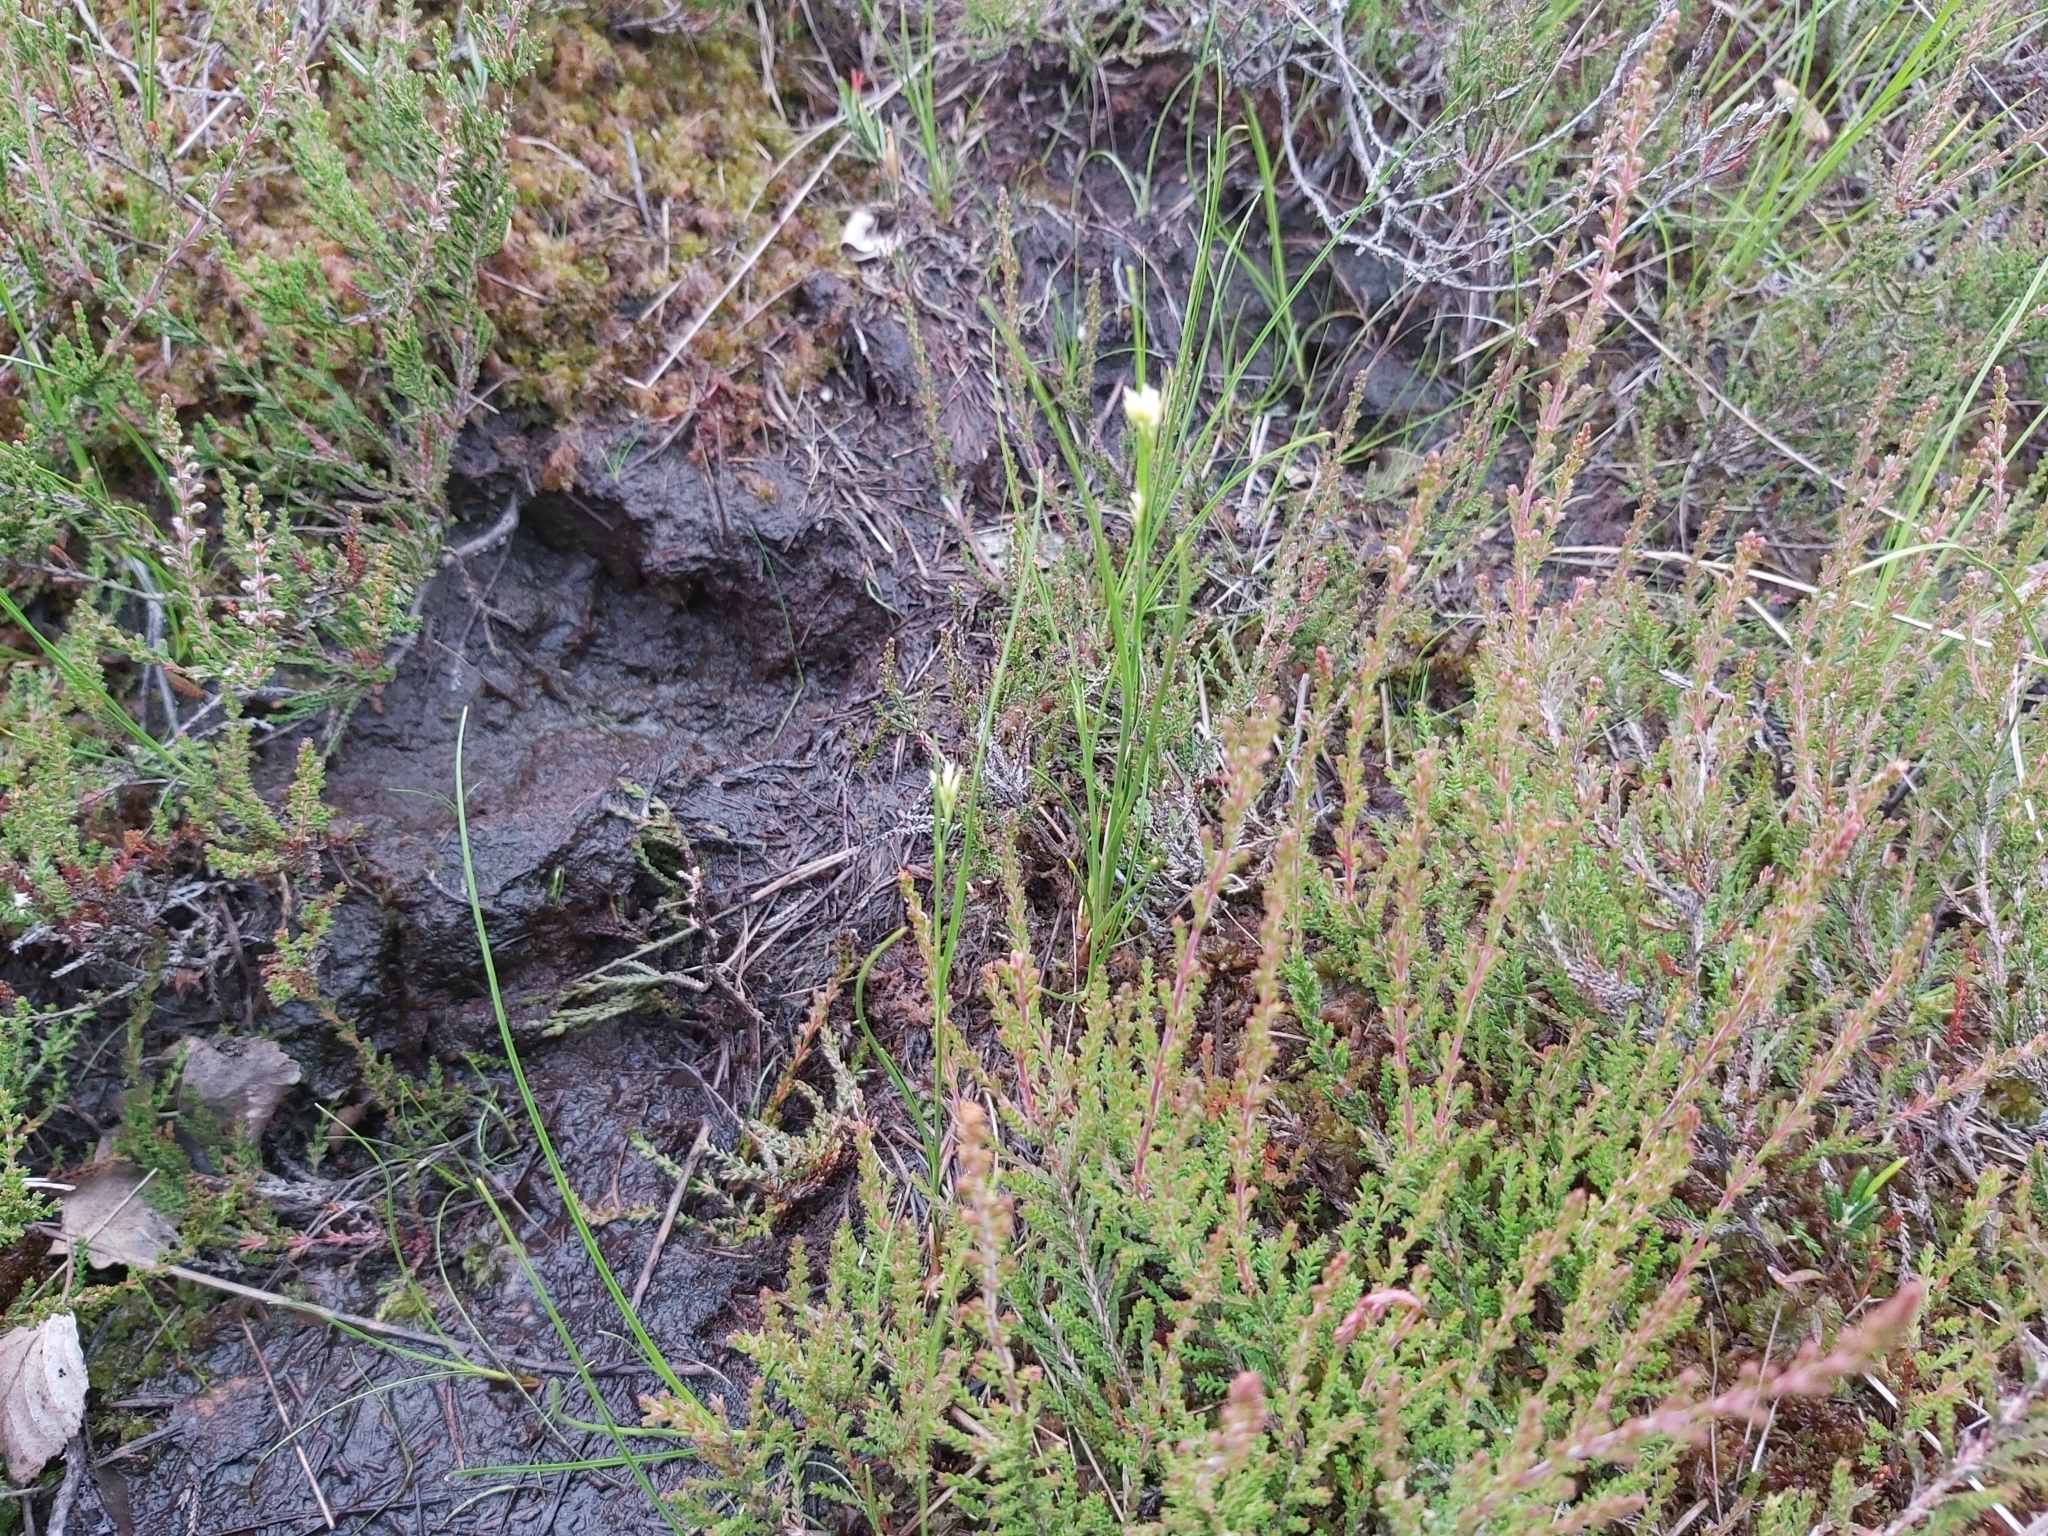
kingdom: Plantae
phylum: Tracheophyta
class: Liliopsida
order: Poales
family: Cyperaceae
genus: Rhynchospora
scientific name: Rhynchospora alba
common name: White beak-sedge
